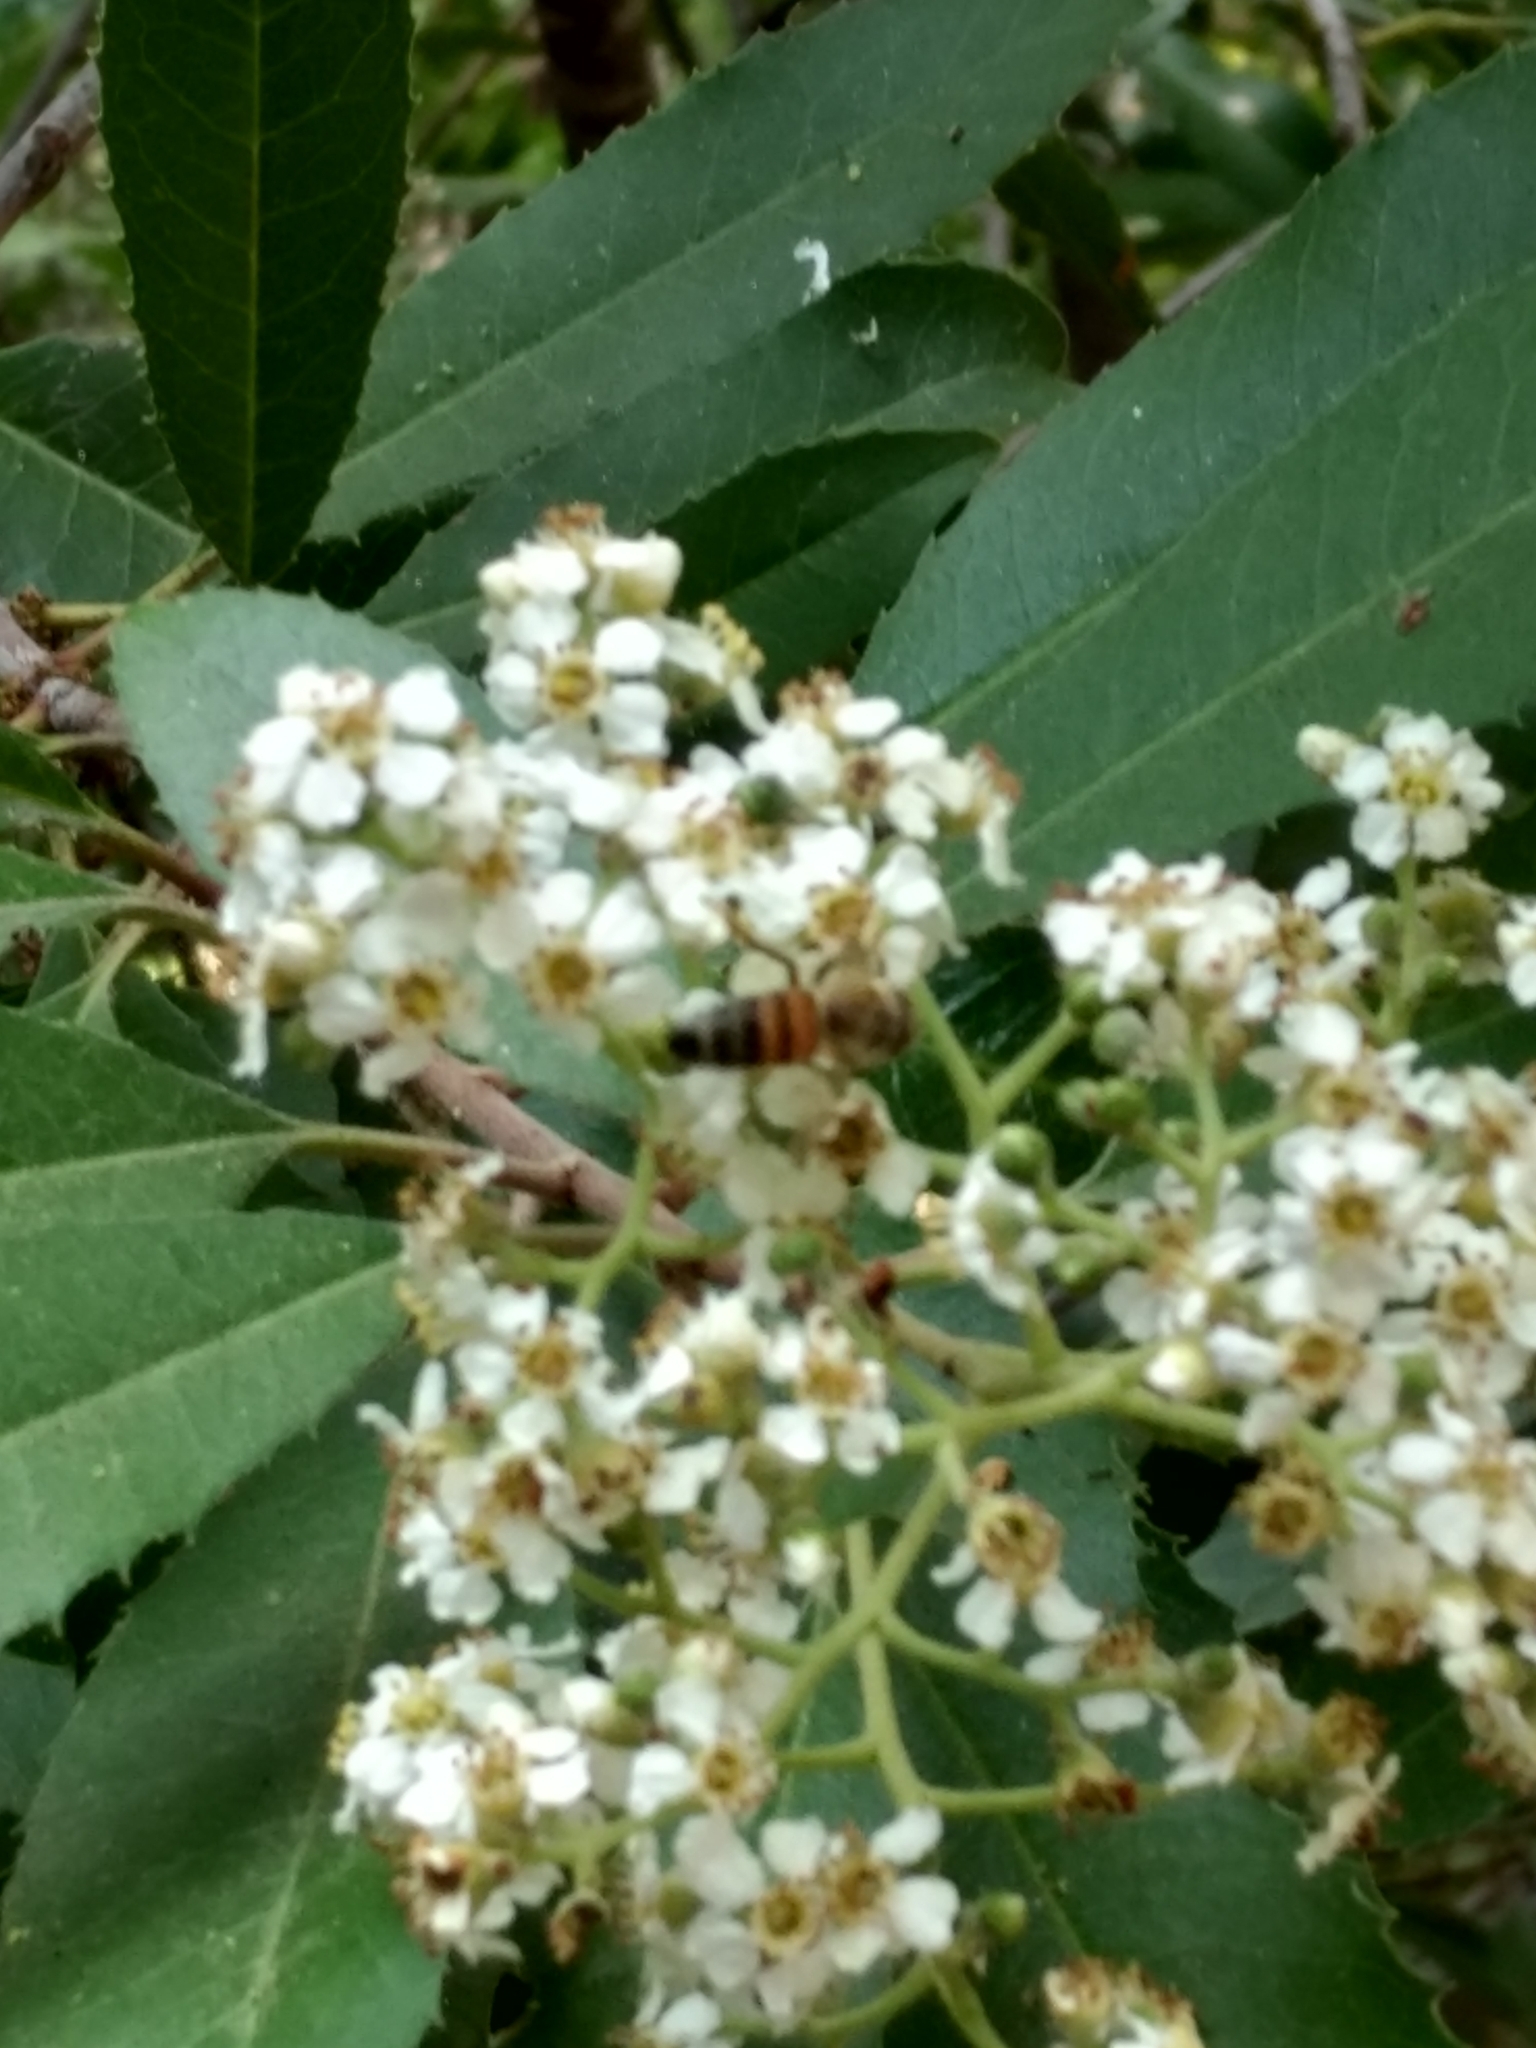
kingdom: Animalia
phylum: Arthropoda
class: Insecta
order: Hymenoptera
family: Apidae
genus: Apis
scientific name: Apis mellifera
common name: Honey bee
